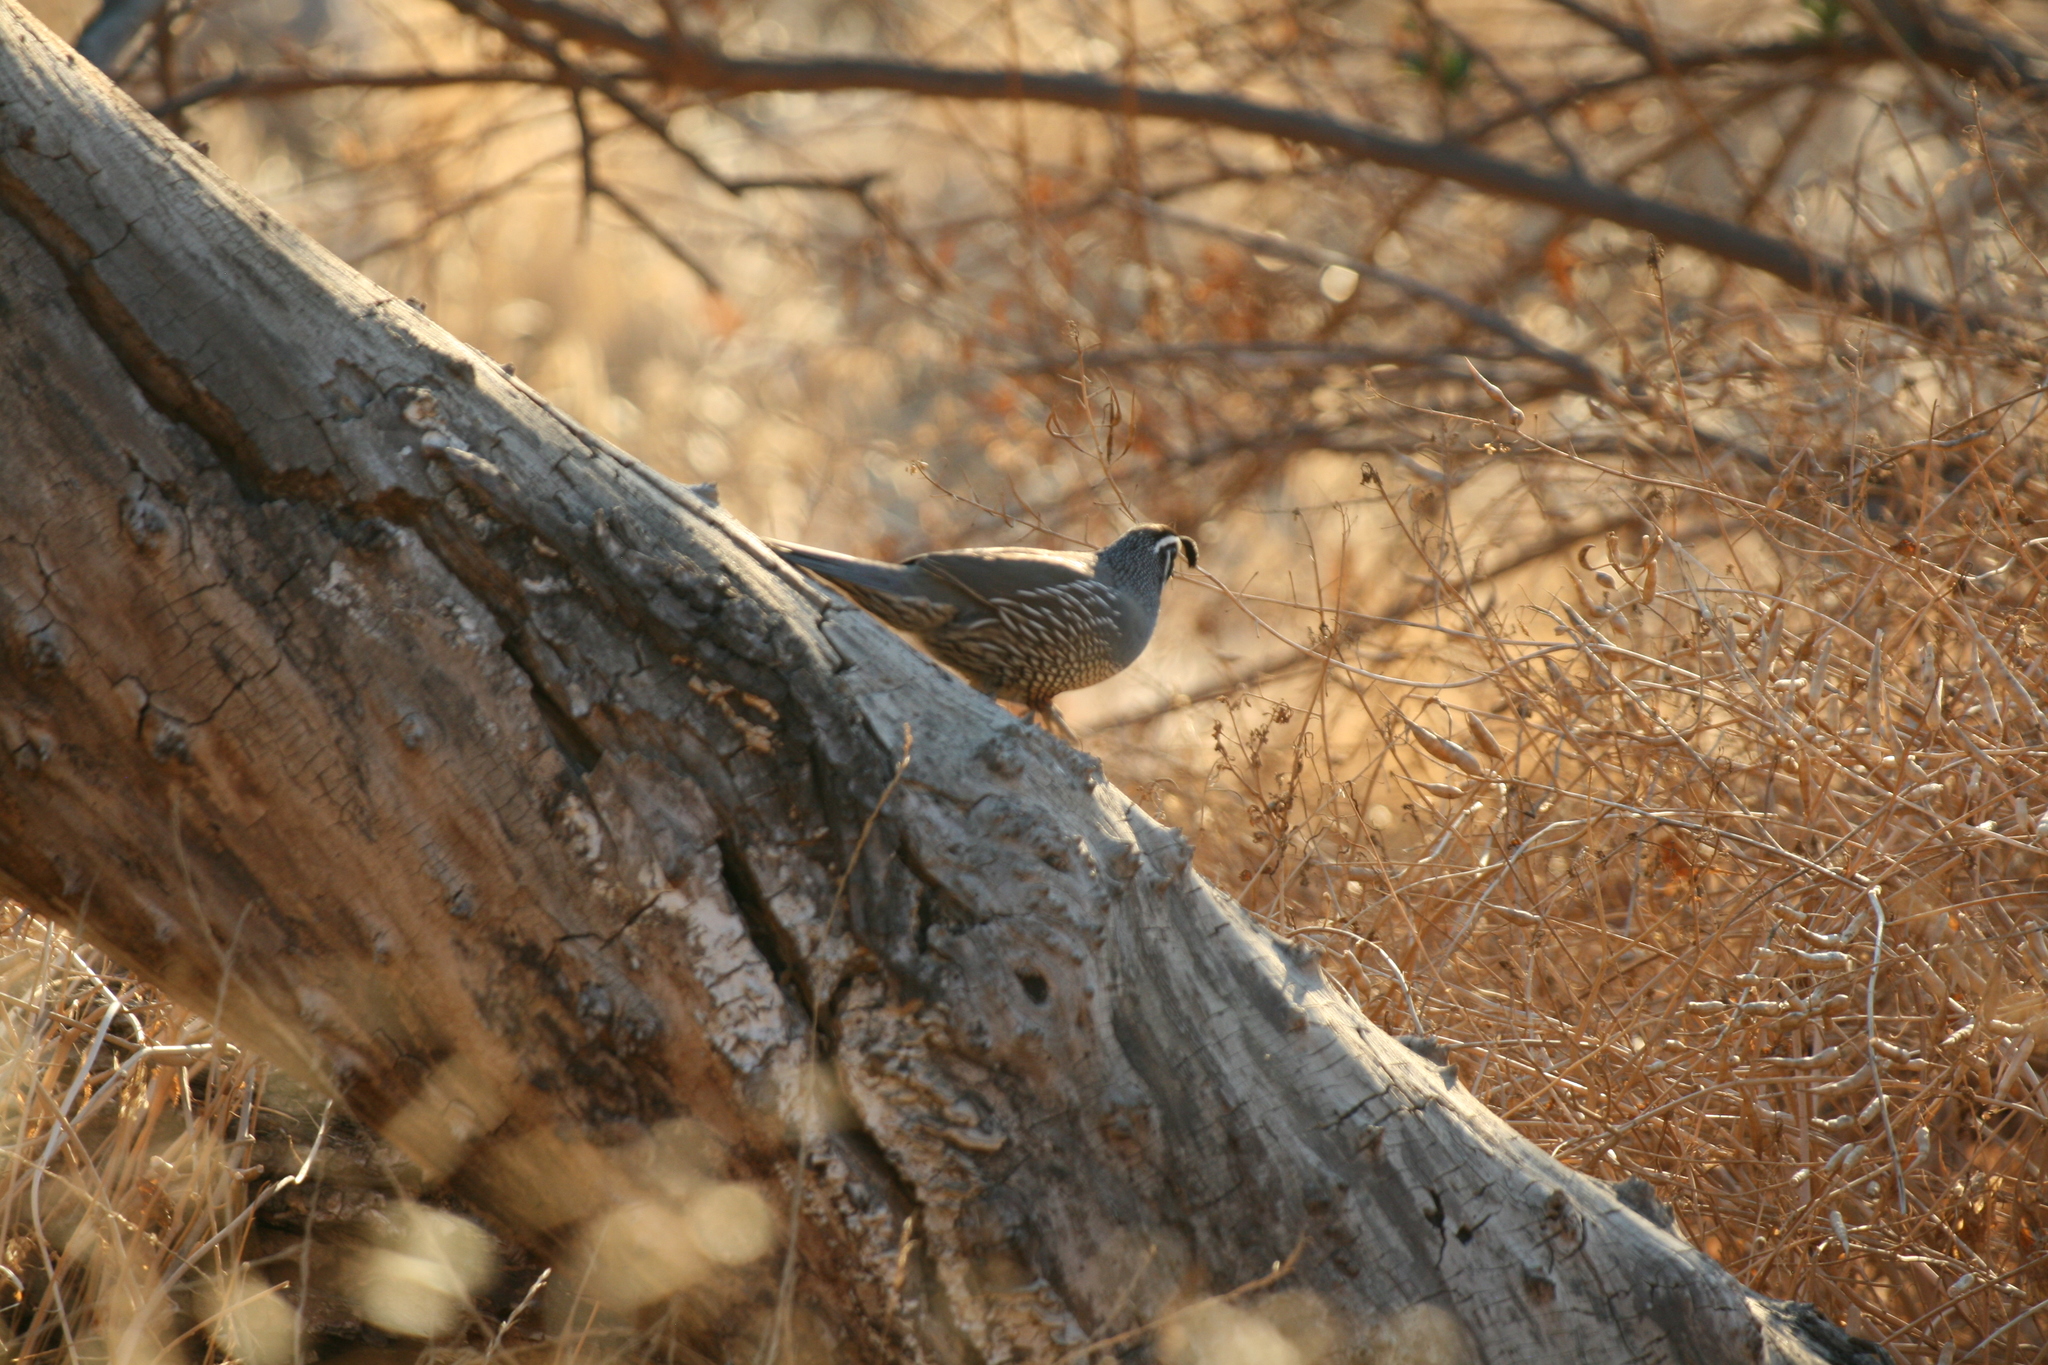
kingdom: Animalia
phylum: Chordata
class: Aves
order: Galliformes
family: Odontophoridae
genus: Callipepla
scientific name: Callipepla californica
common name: California quail
